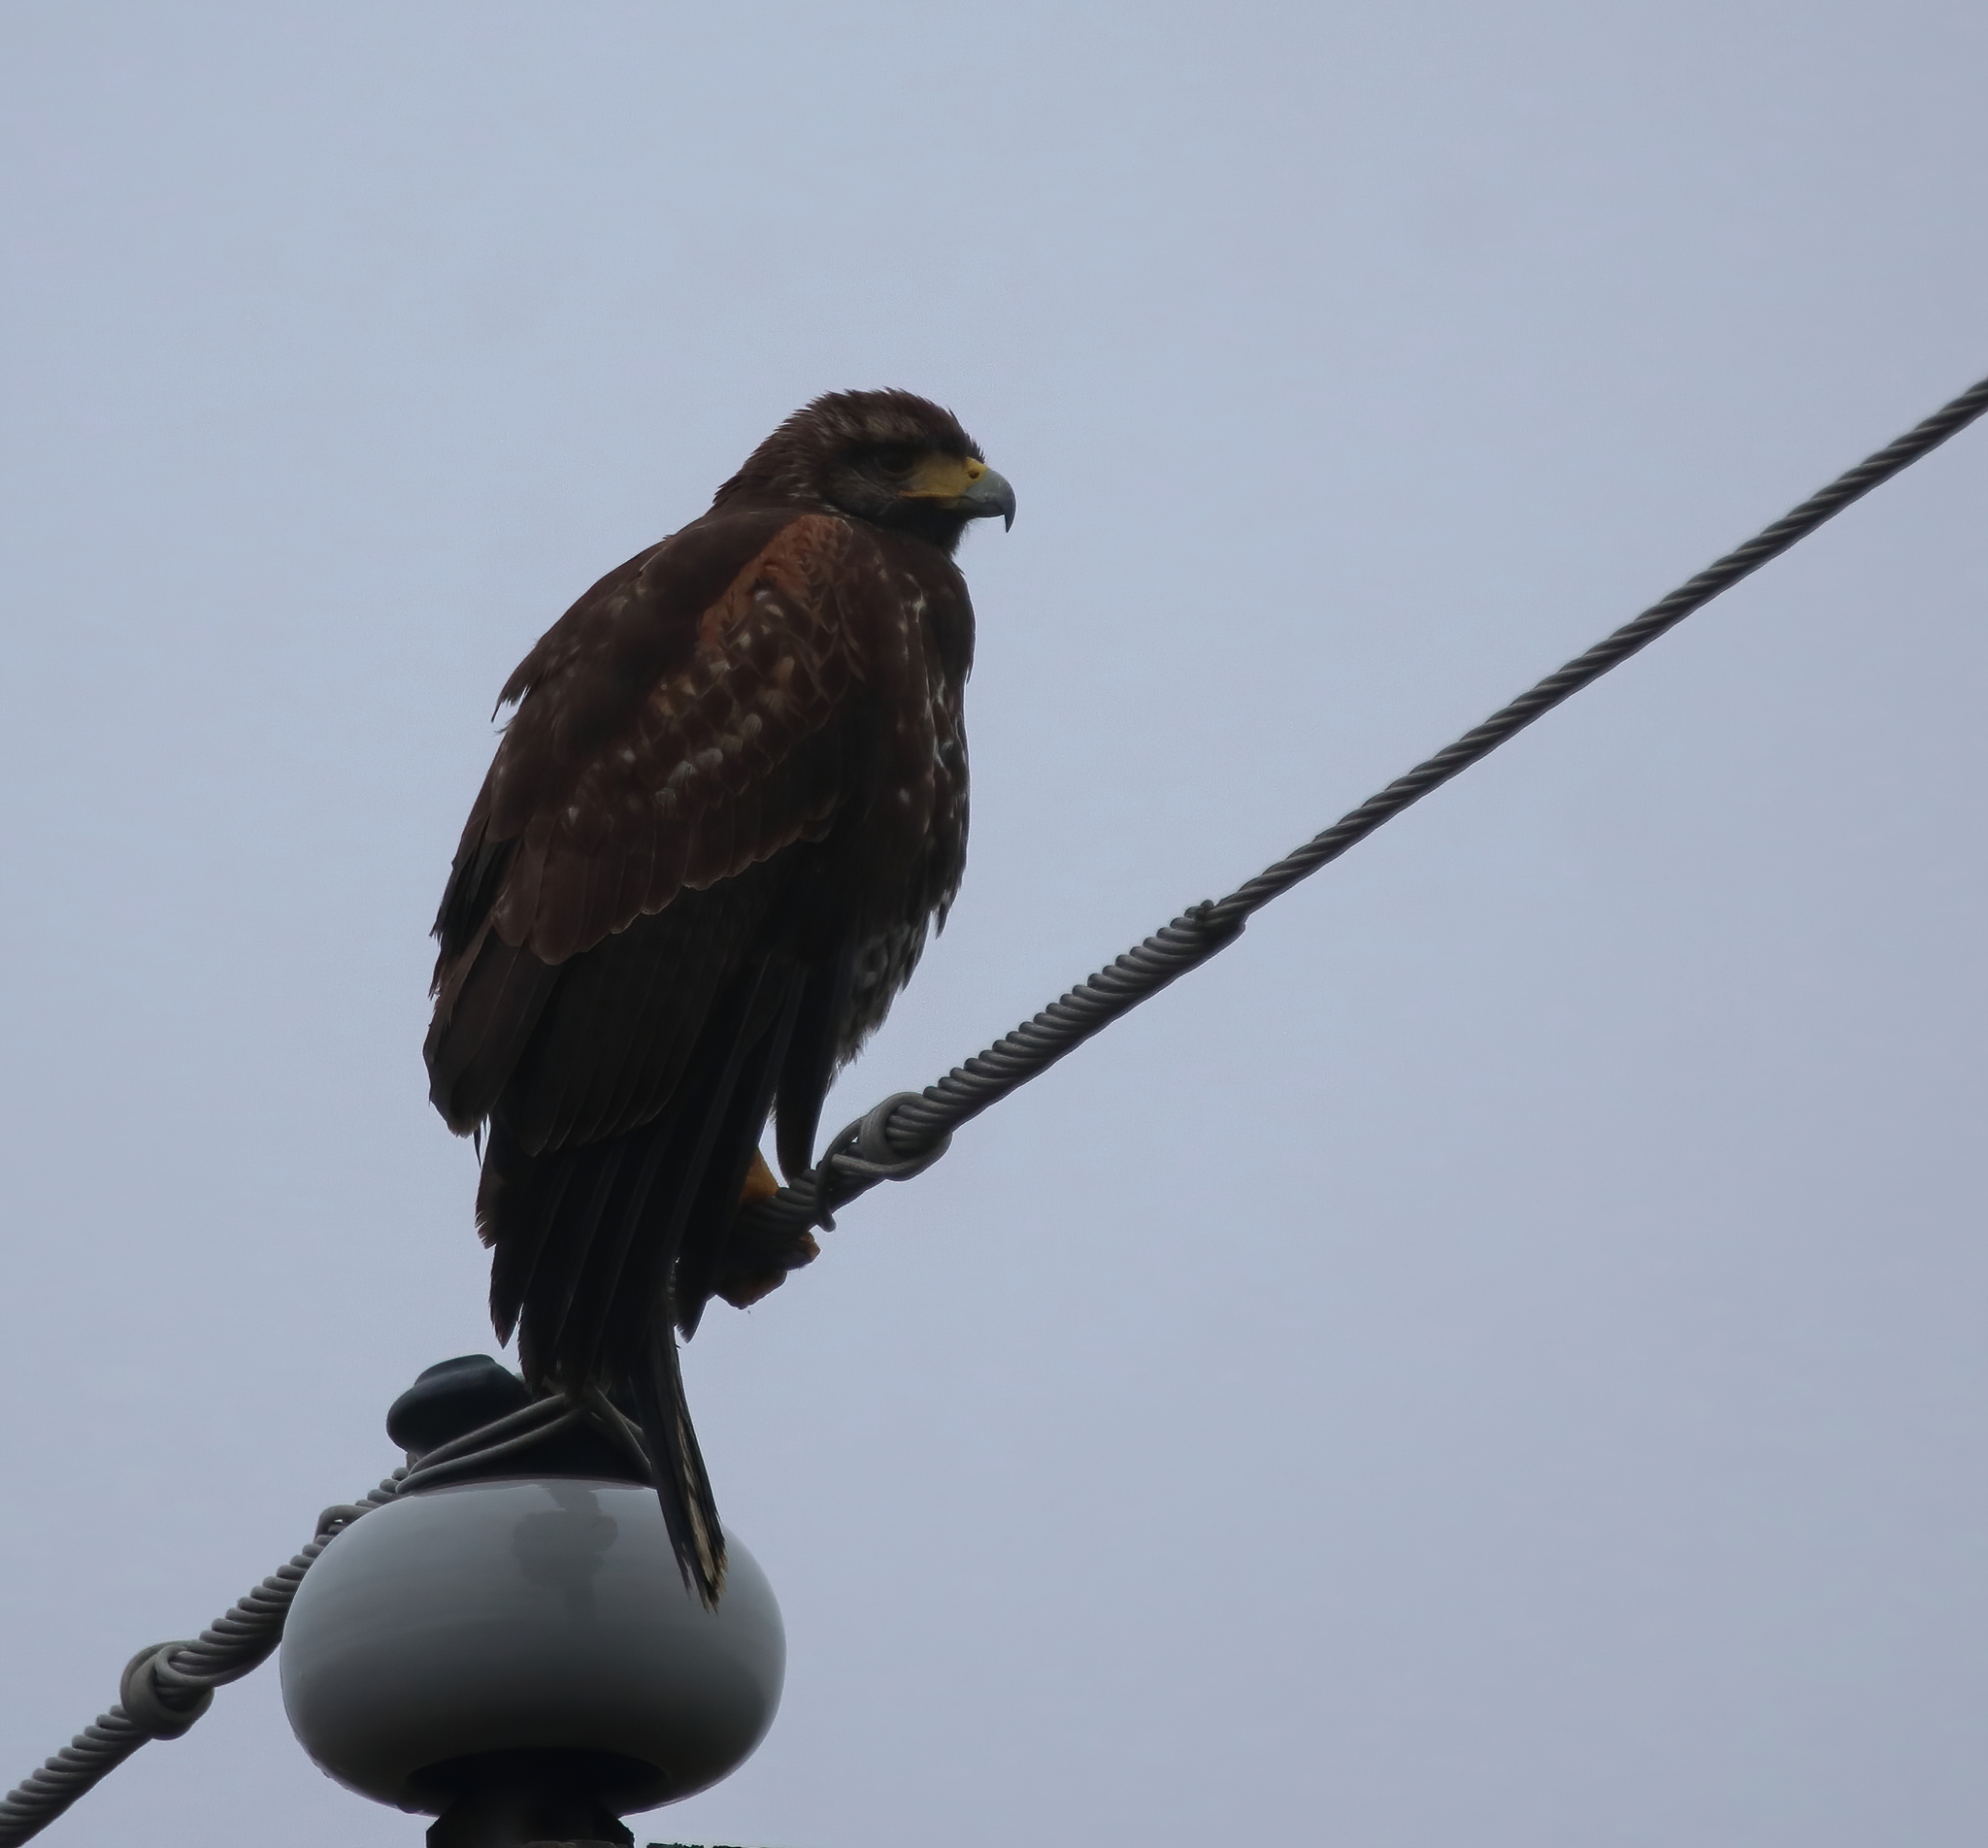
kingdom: Animalia
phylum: Chordata
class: Aves
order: Accipitriformes
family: Accipitridae
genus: Parabuteo
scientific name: Parabuteo unicinctus
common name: Harris's hawk
